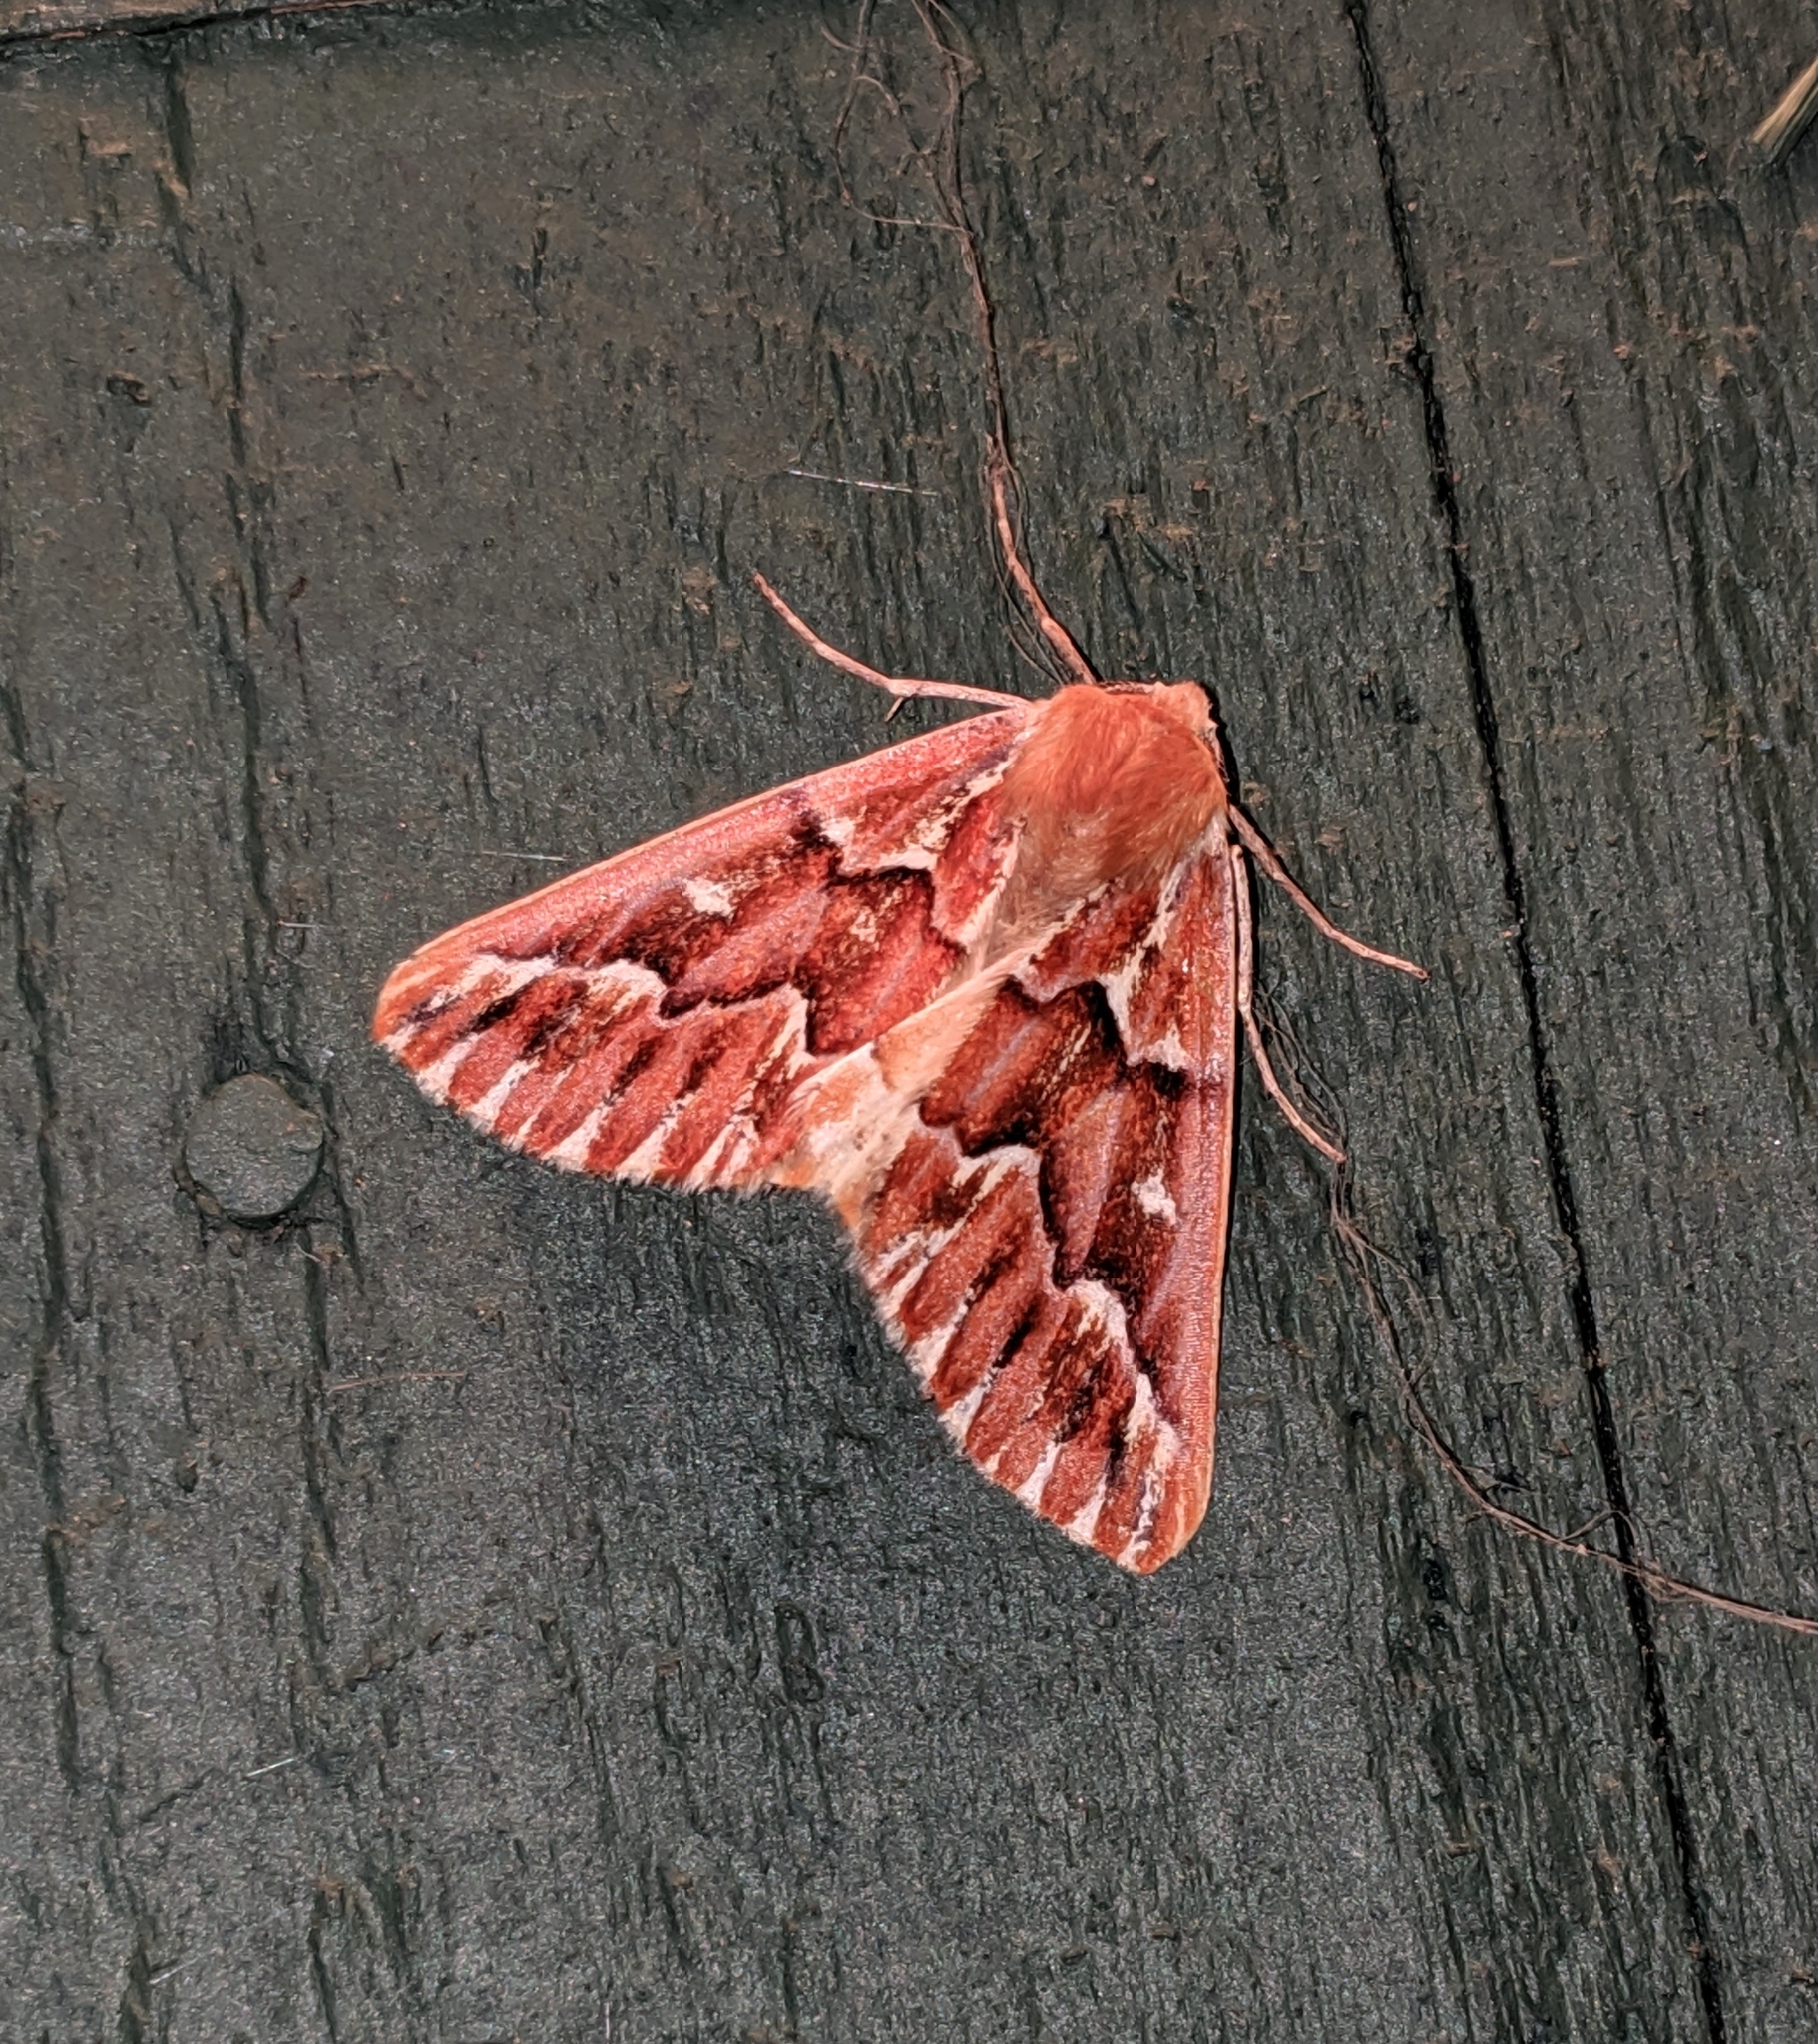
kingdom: Animalia
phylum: Arthropoda
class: Insecta
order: Lepidoptera
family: Geometridae
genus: Caripeta
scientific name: Caripeta aequaliaria
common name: Red girdle moth
